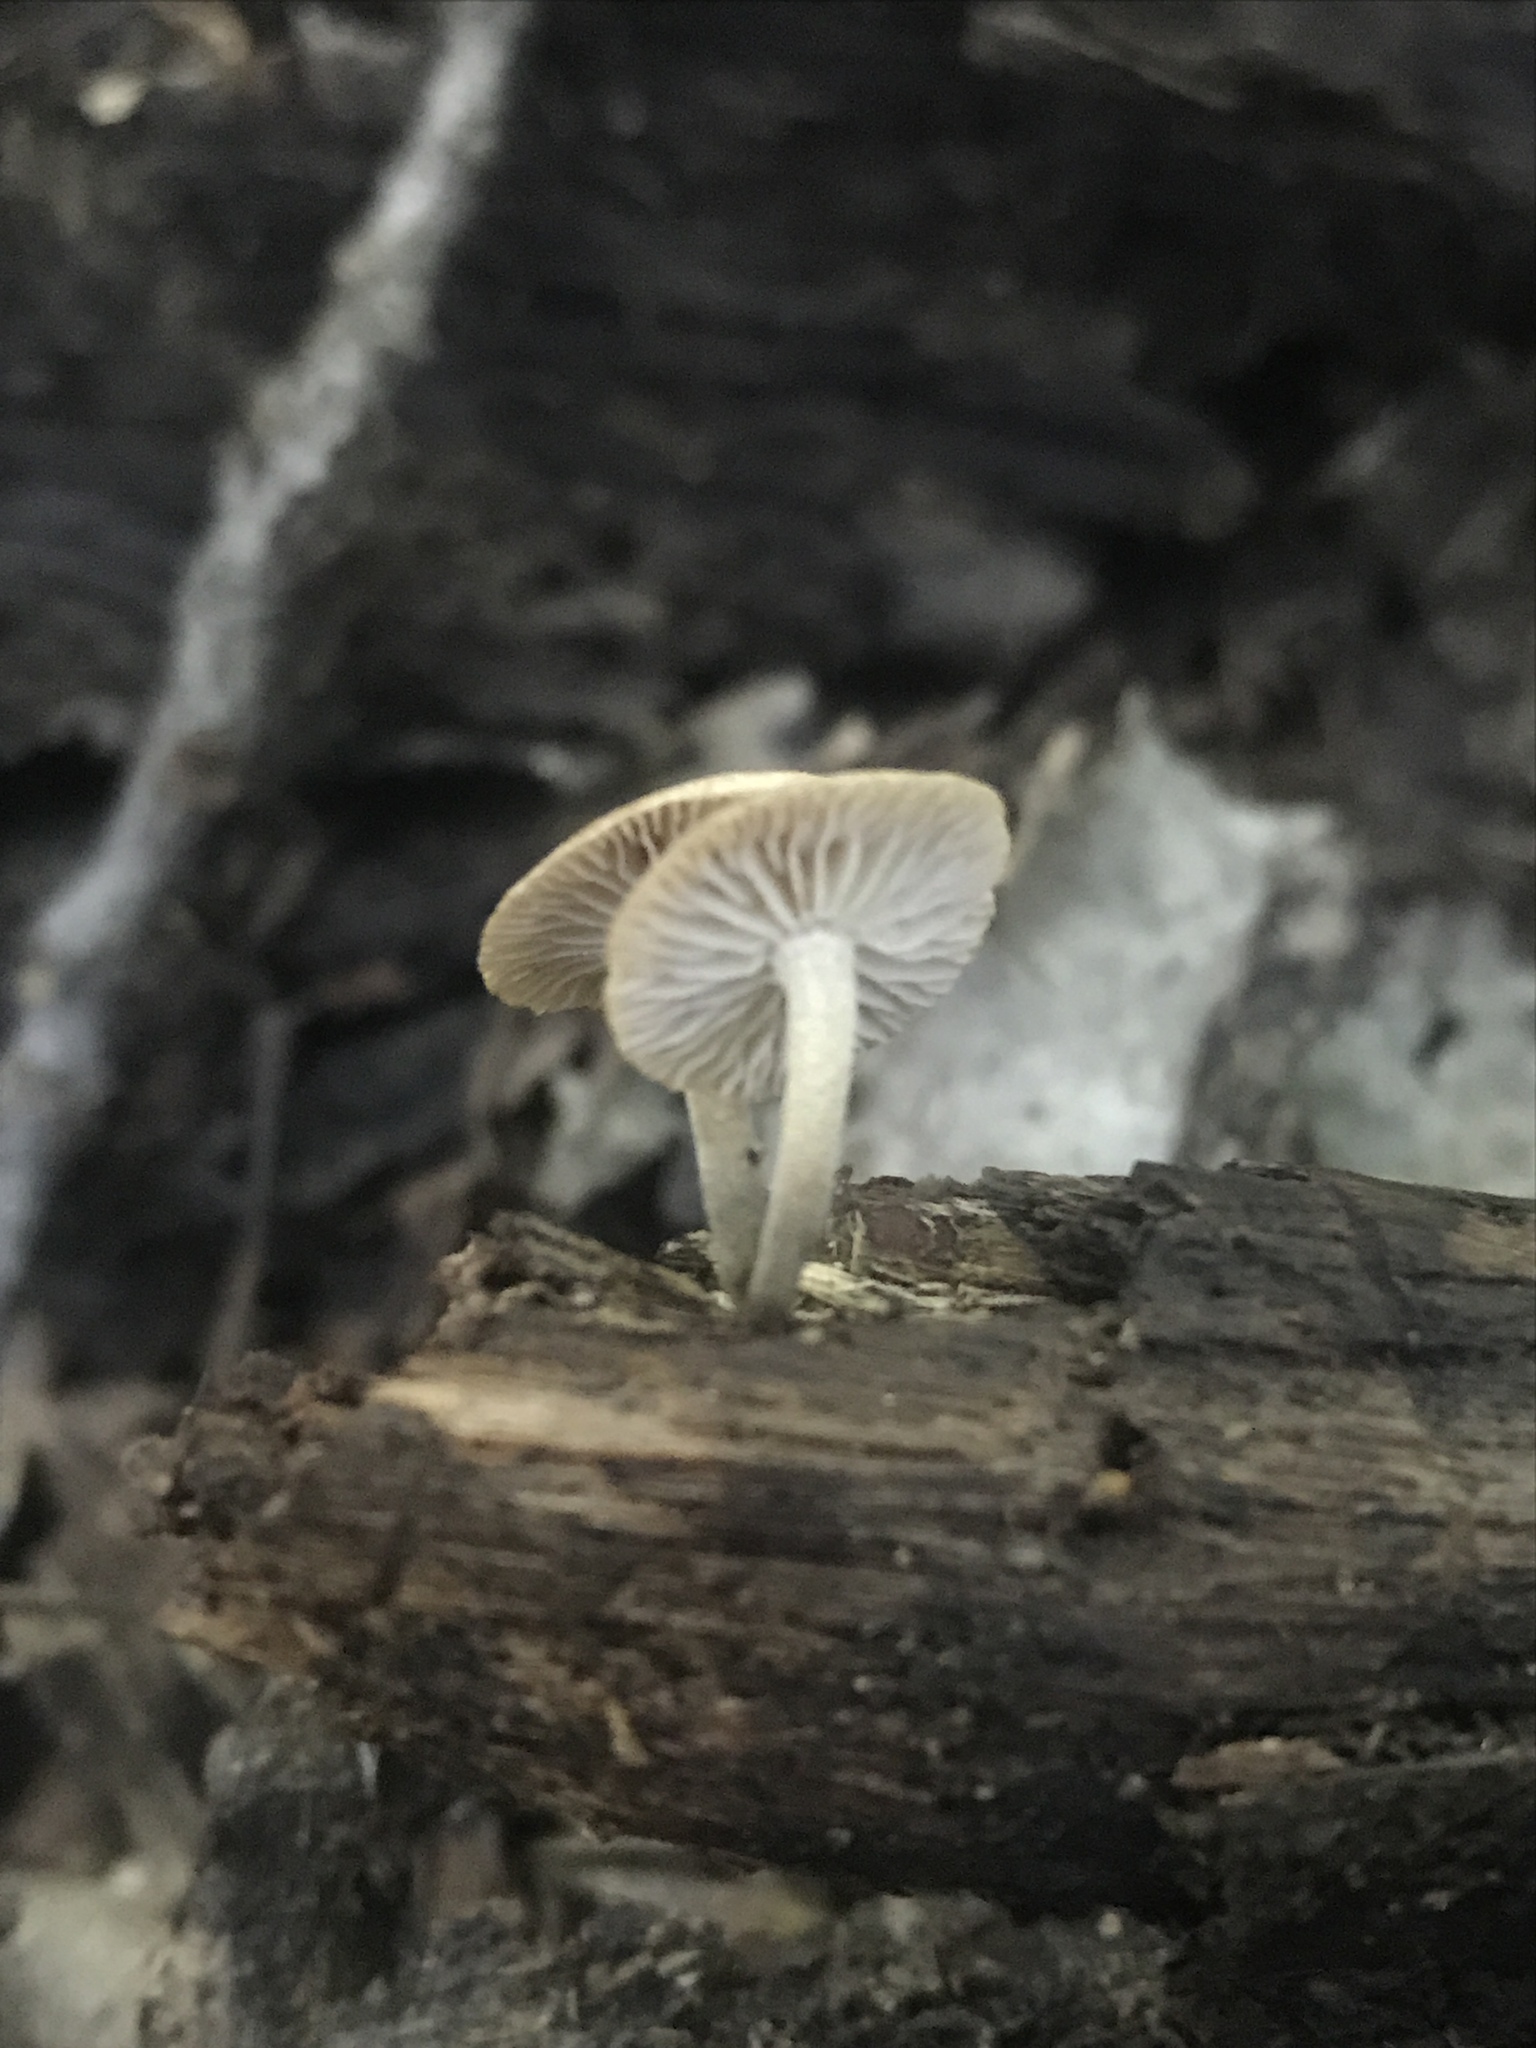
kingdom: Fungi
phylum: Basidiomycota
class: Agaricomycetes
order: Agaricales
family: Omphalotaceae
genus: Collybiopsis
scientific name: Collybiopsis dichroa
